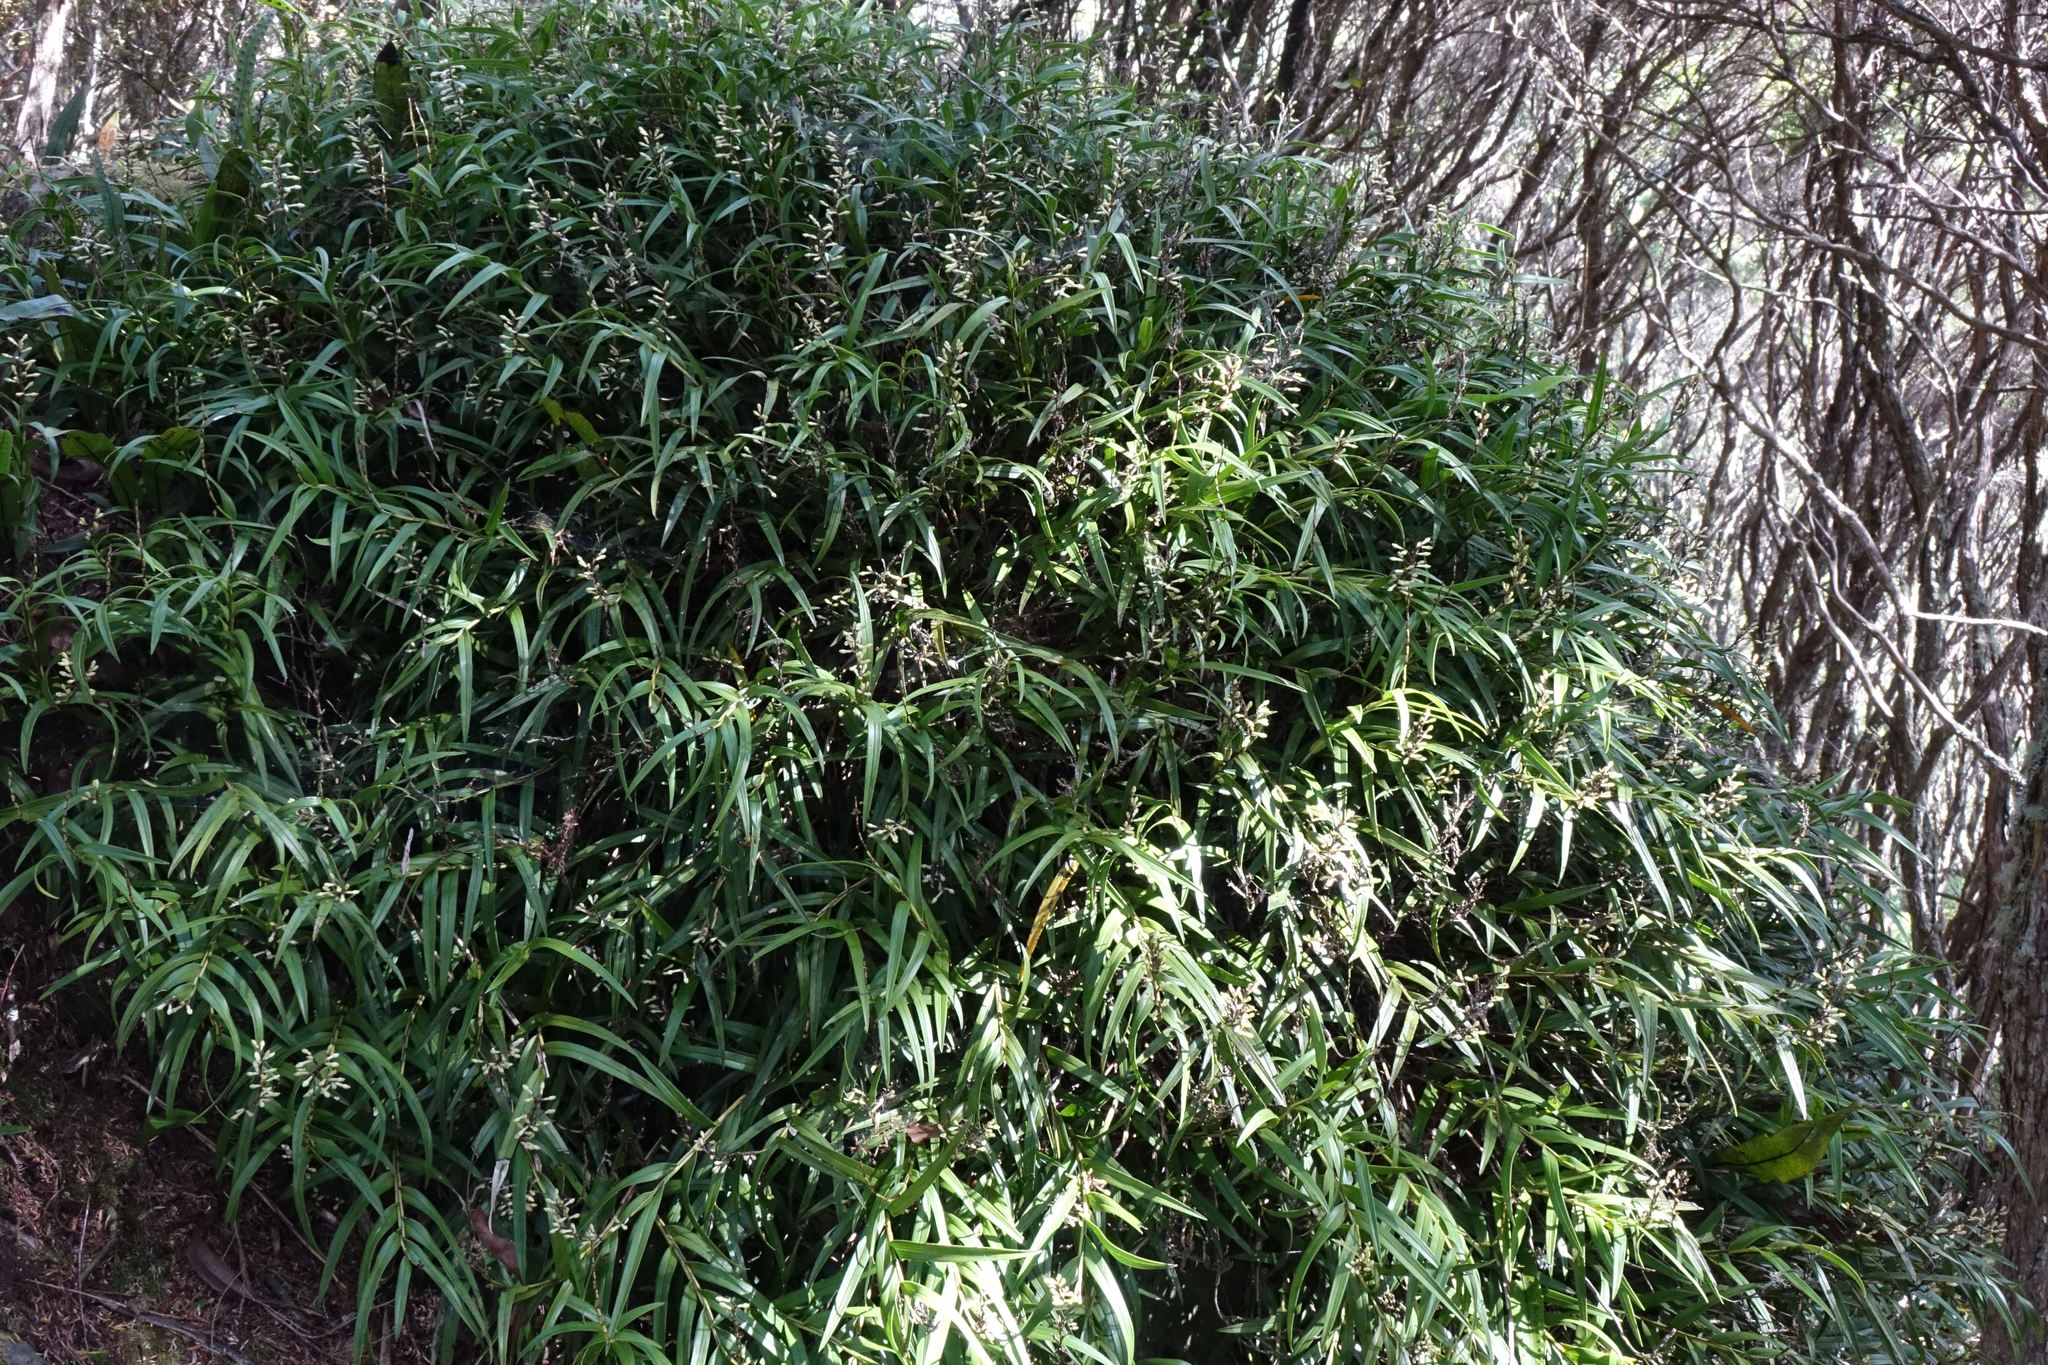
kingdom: Plantae
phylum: Tracheophyta
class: Liliopsida
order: Asparagales
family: Orchidaceae
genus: Earina
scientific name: Earina autumnalis
